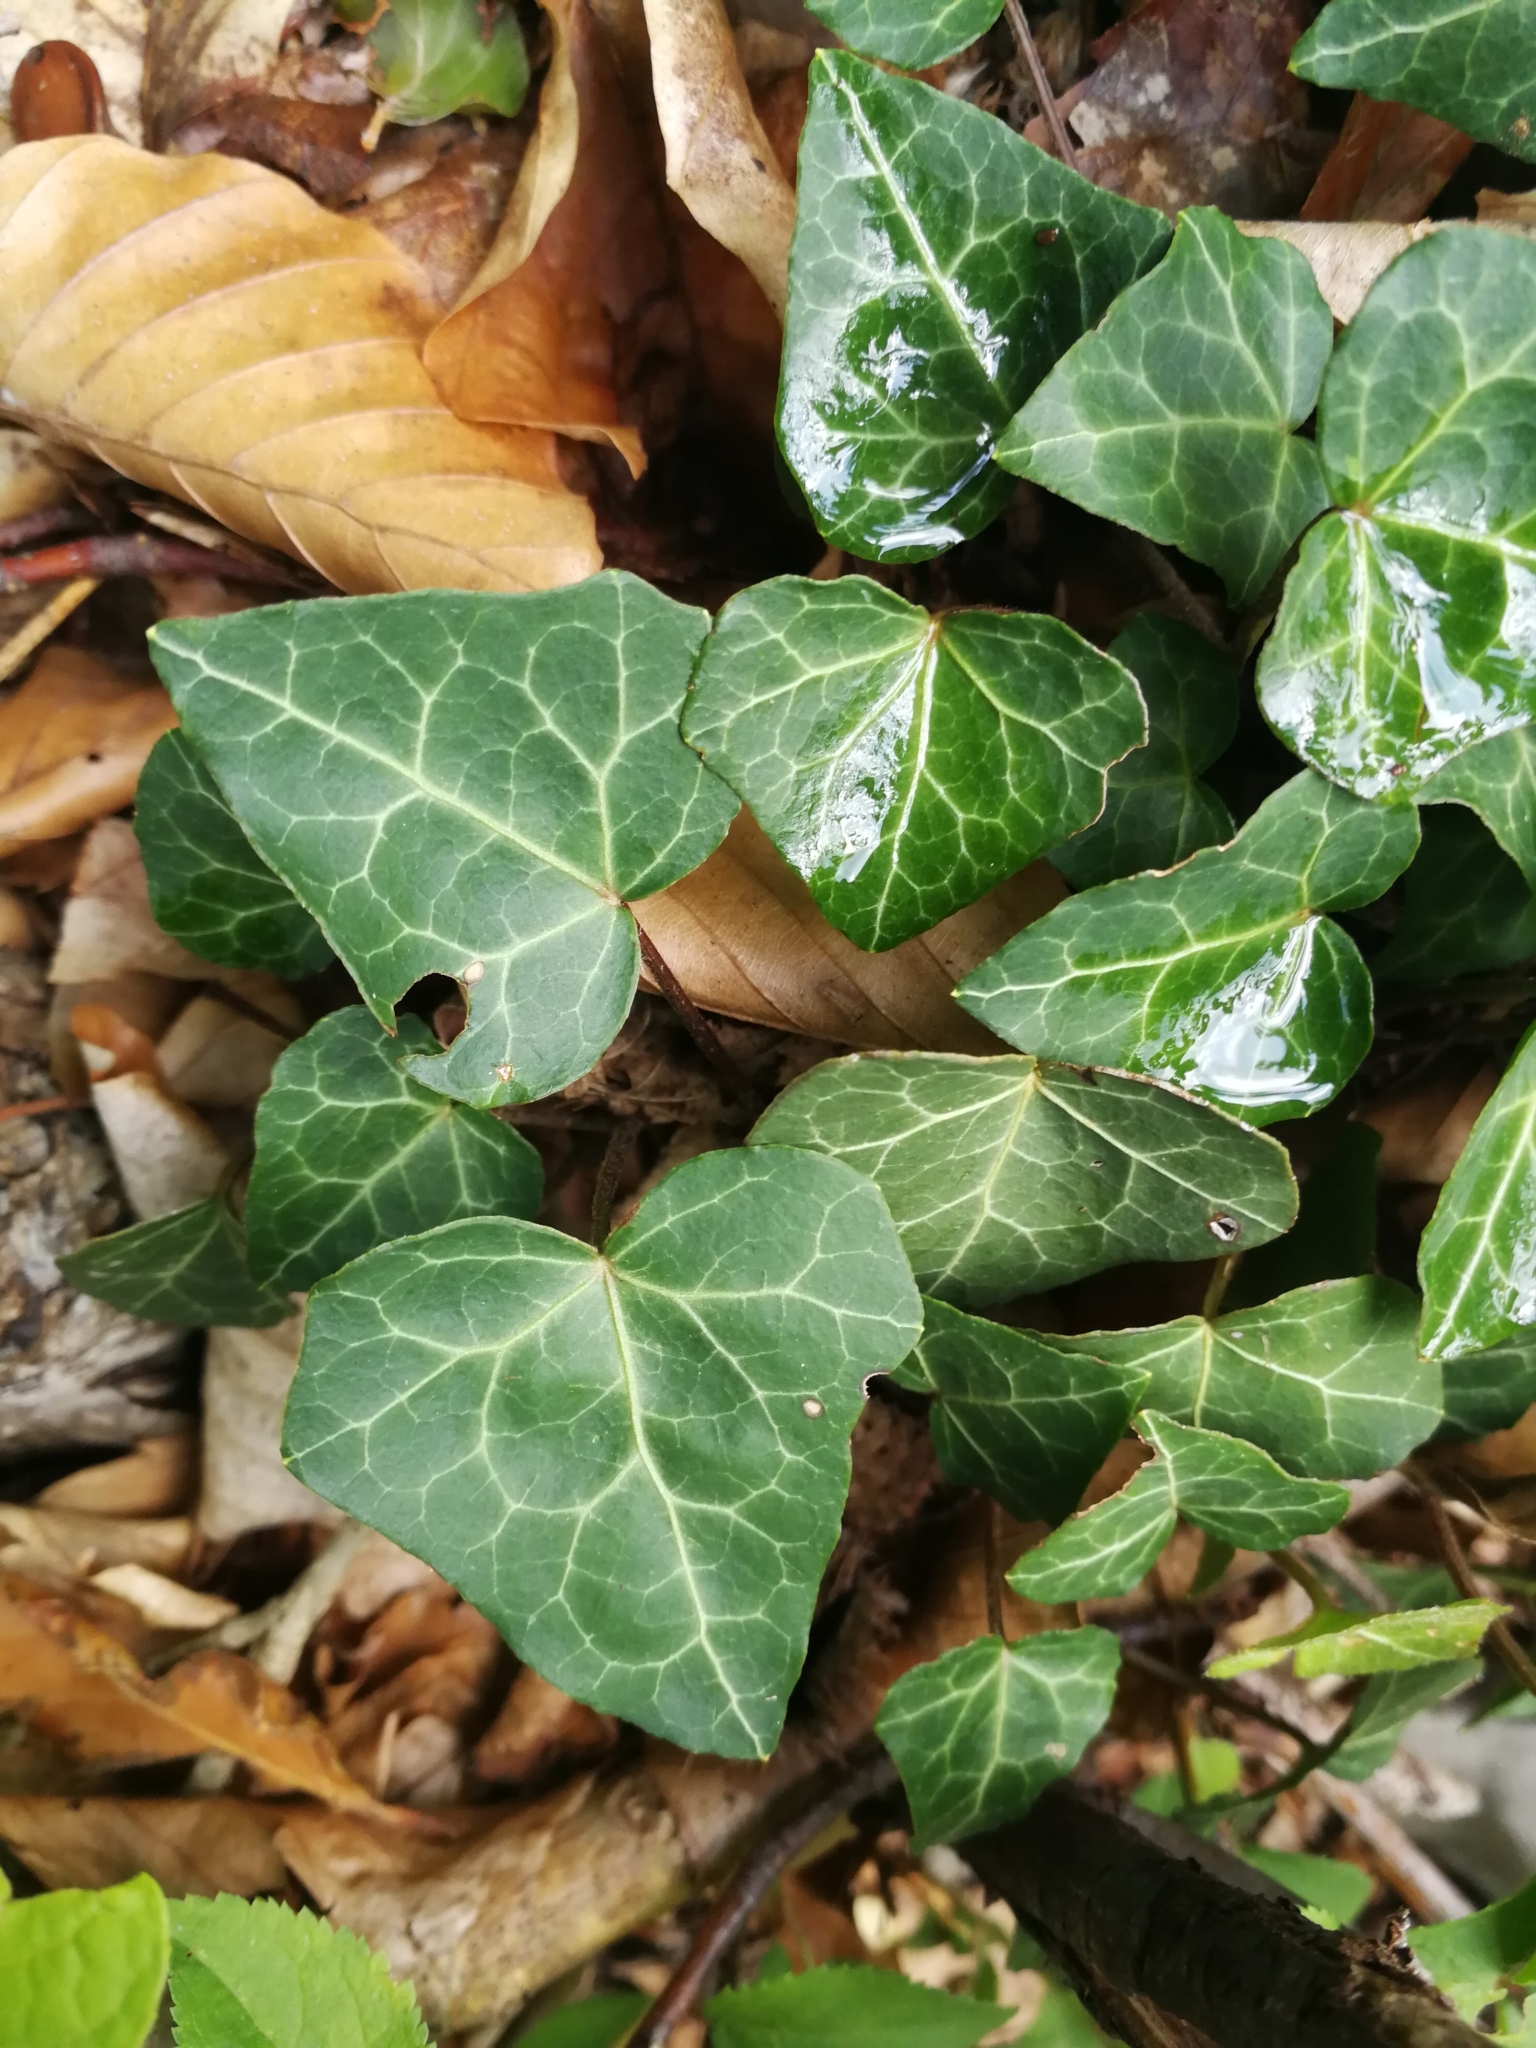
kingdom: Plantae
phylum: Tracheophyta
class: Magnoliopsida
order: Apiales
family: Araliaceae
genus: Hedera
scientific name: Hedera helix
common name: Ivy
